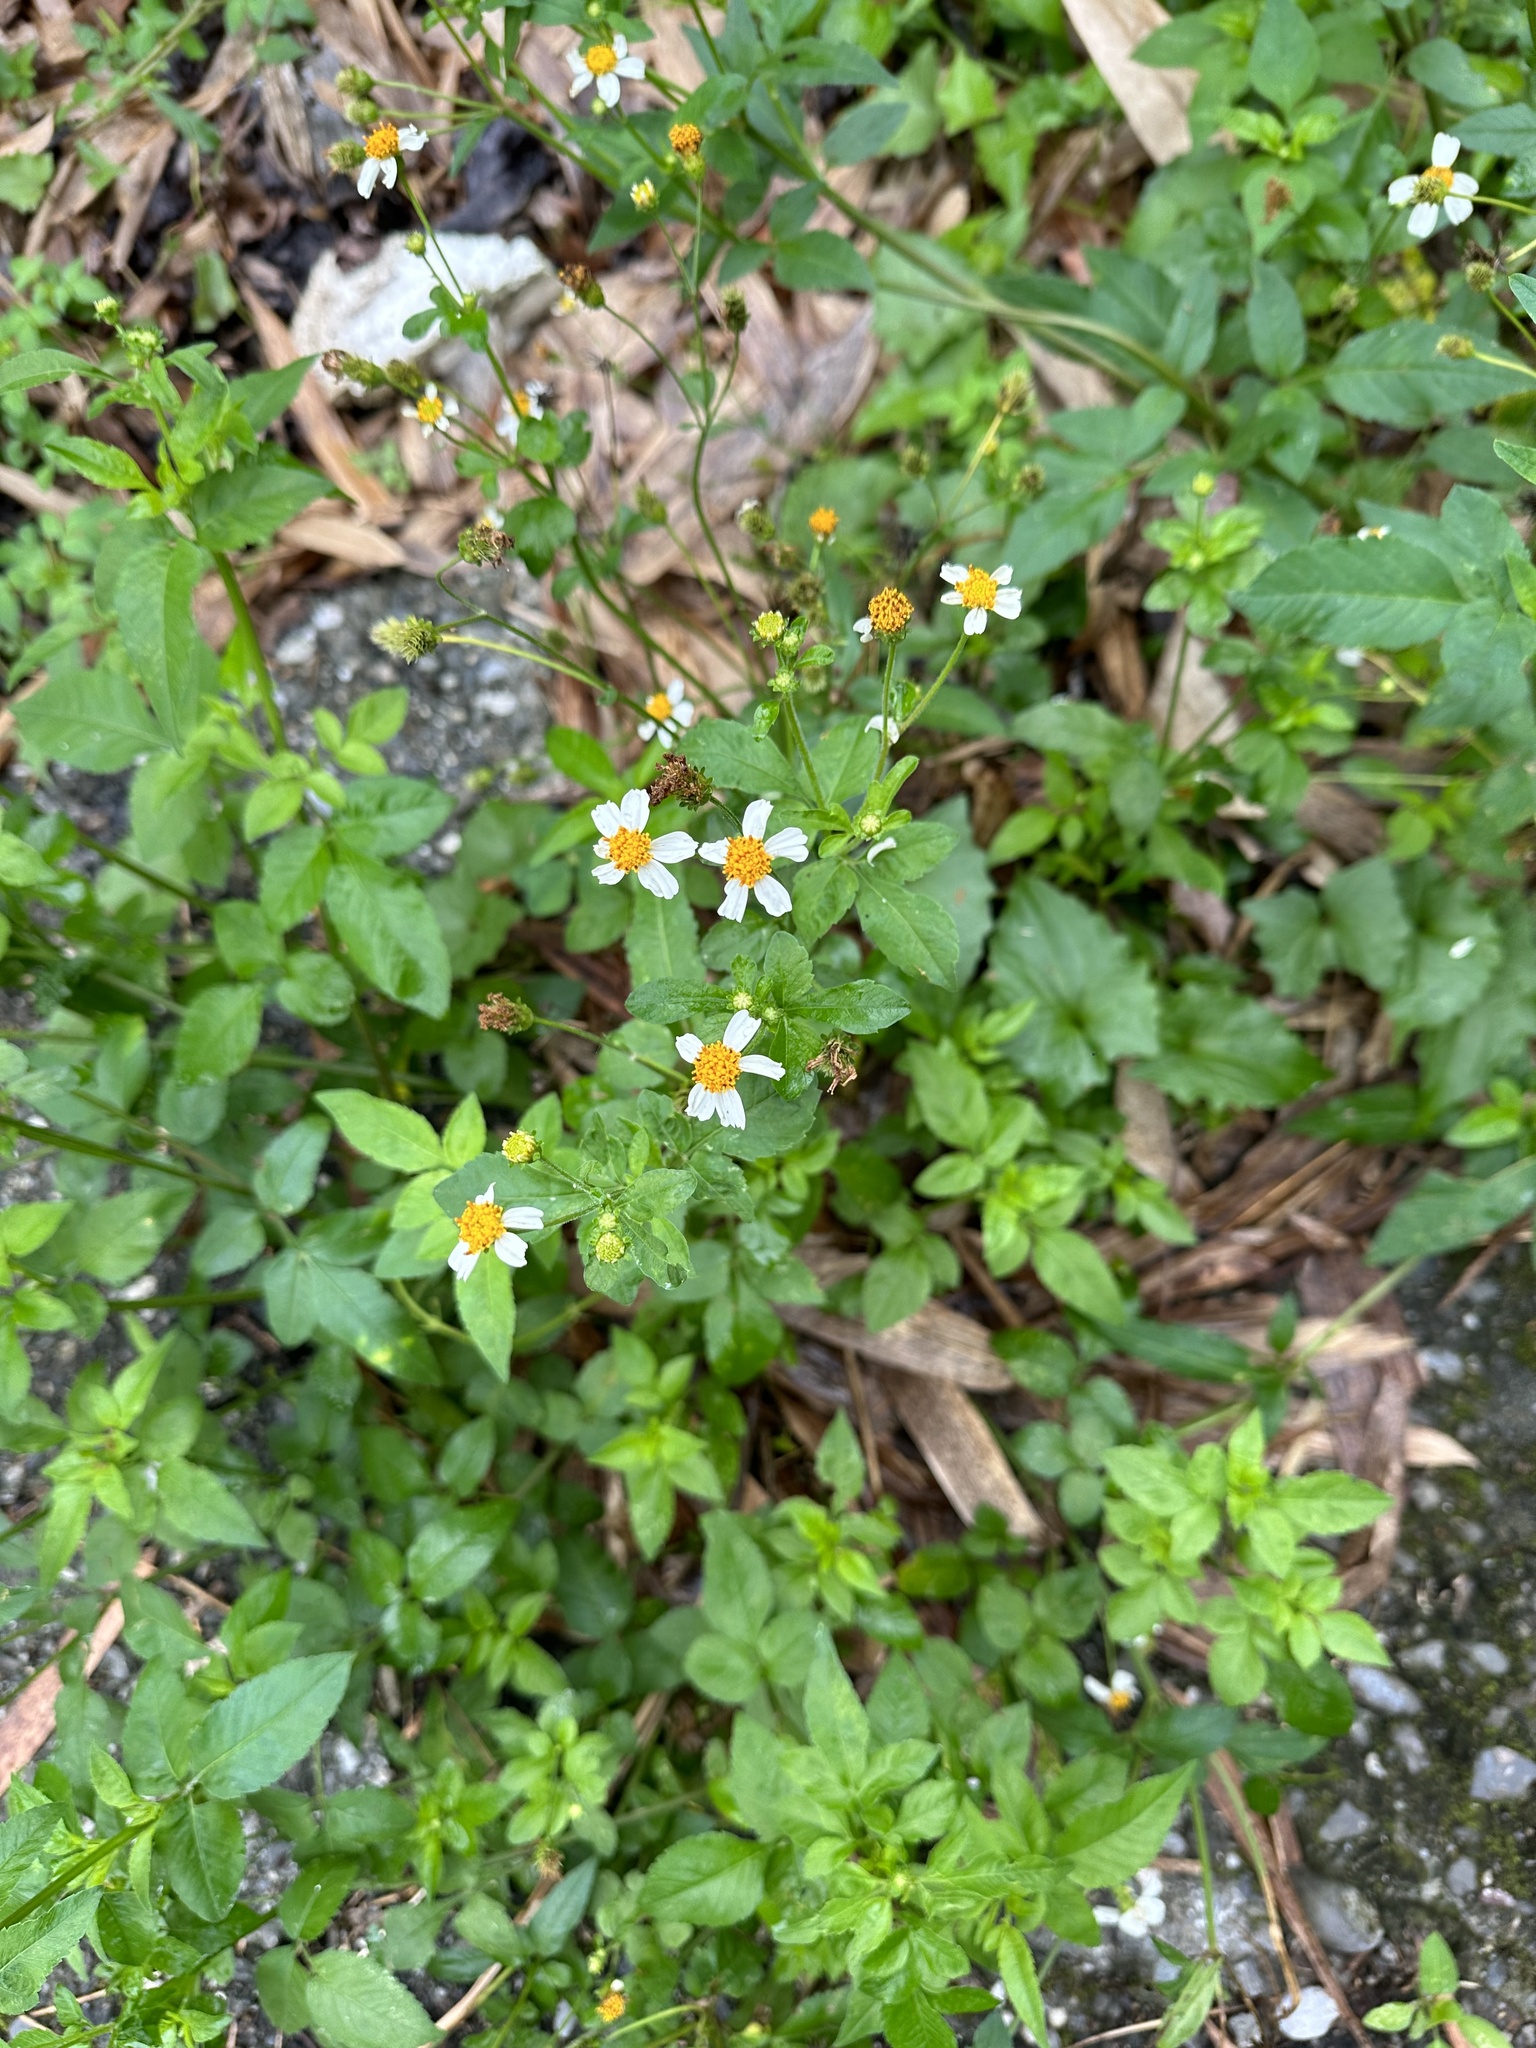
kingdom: Plantae
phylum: Tracheophyta
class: Magnoliopsida
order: Asterales
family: Asteraceae
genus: Bidens
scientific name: Bidens alba
